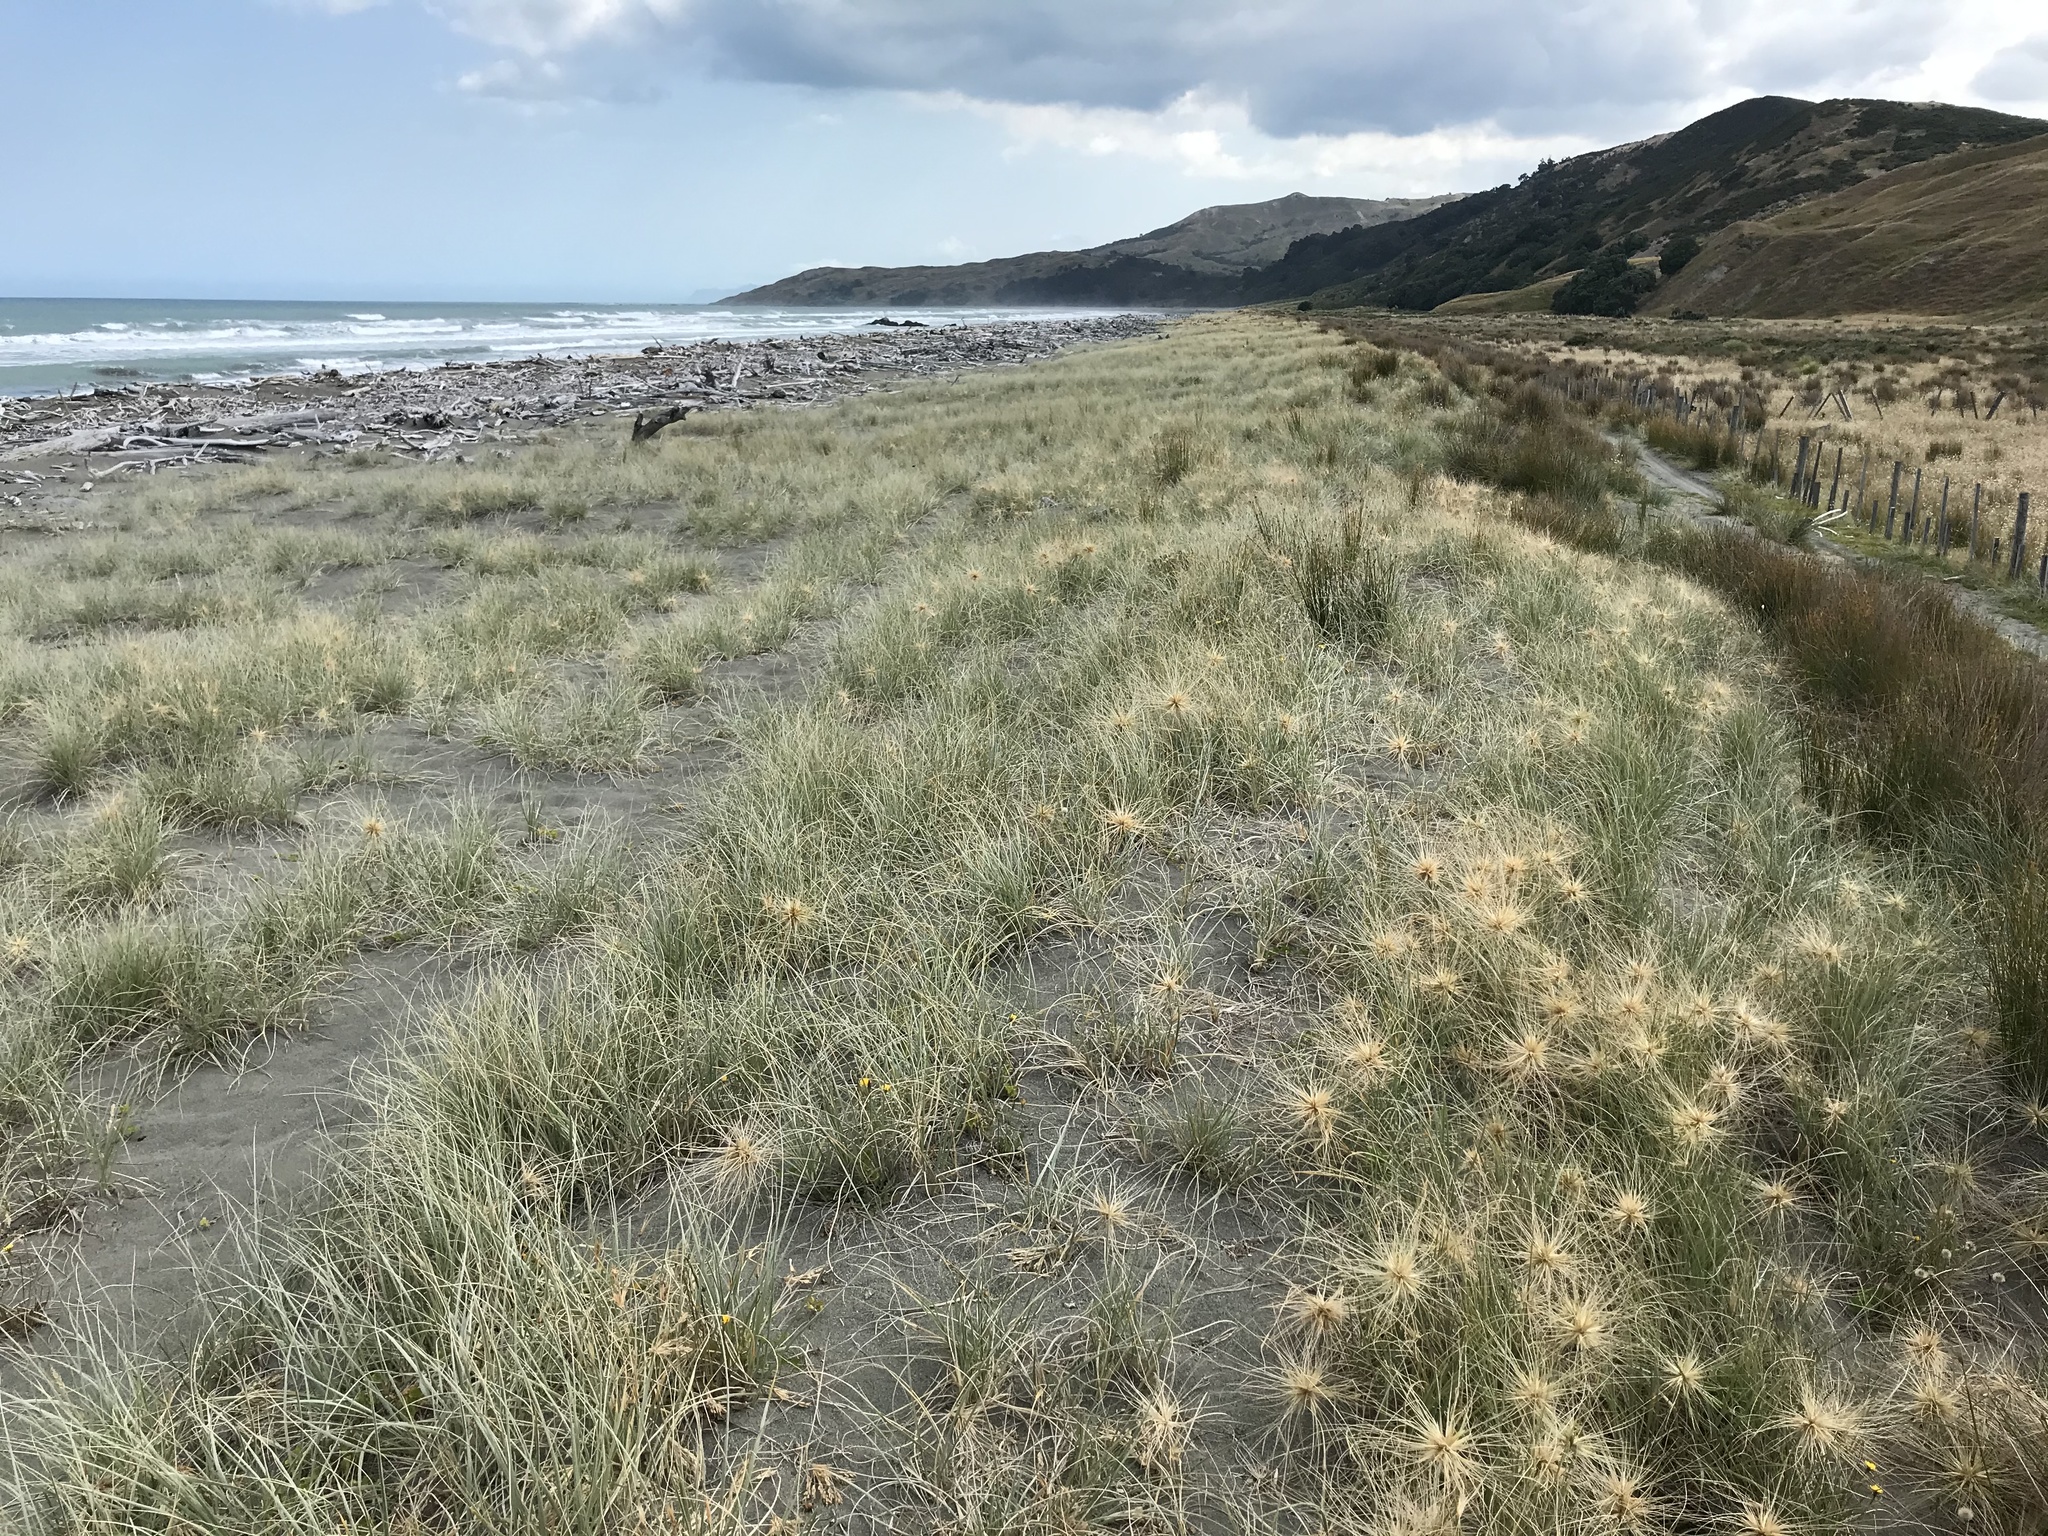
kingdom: Plantae
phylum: Tracheophyta
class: Liliopsida
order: Poales
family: Poaceae
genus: Spinifex
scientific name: Spinifex sericeus
